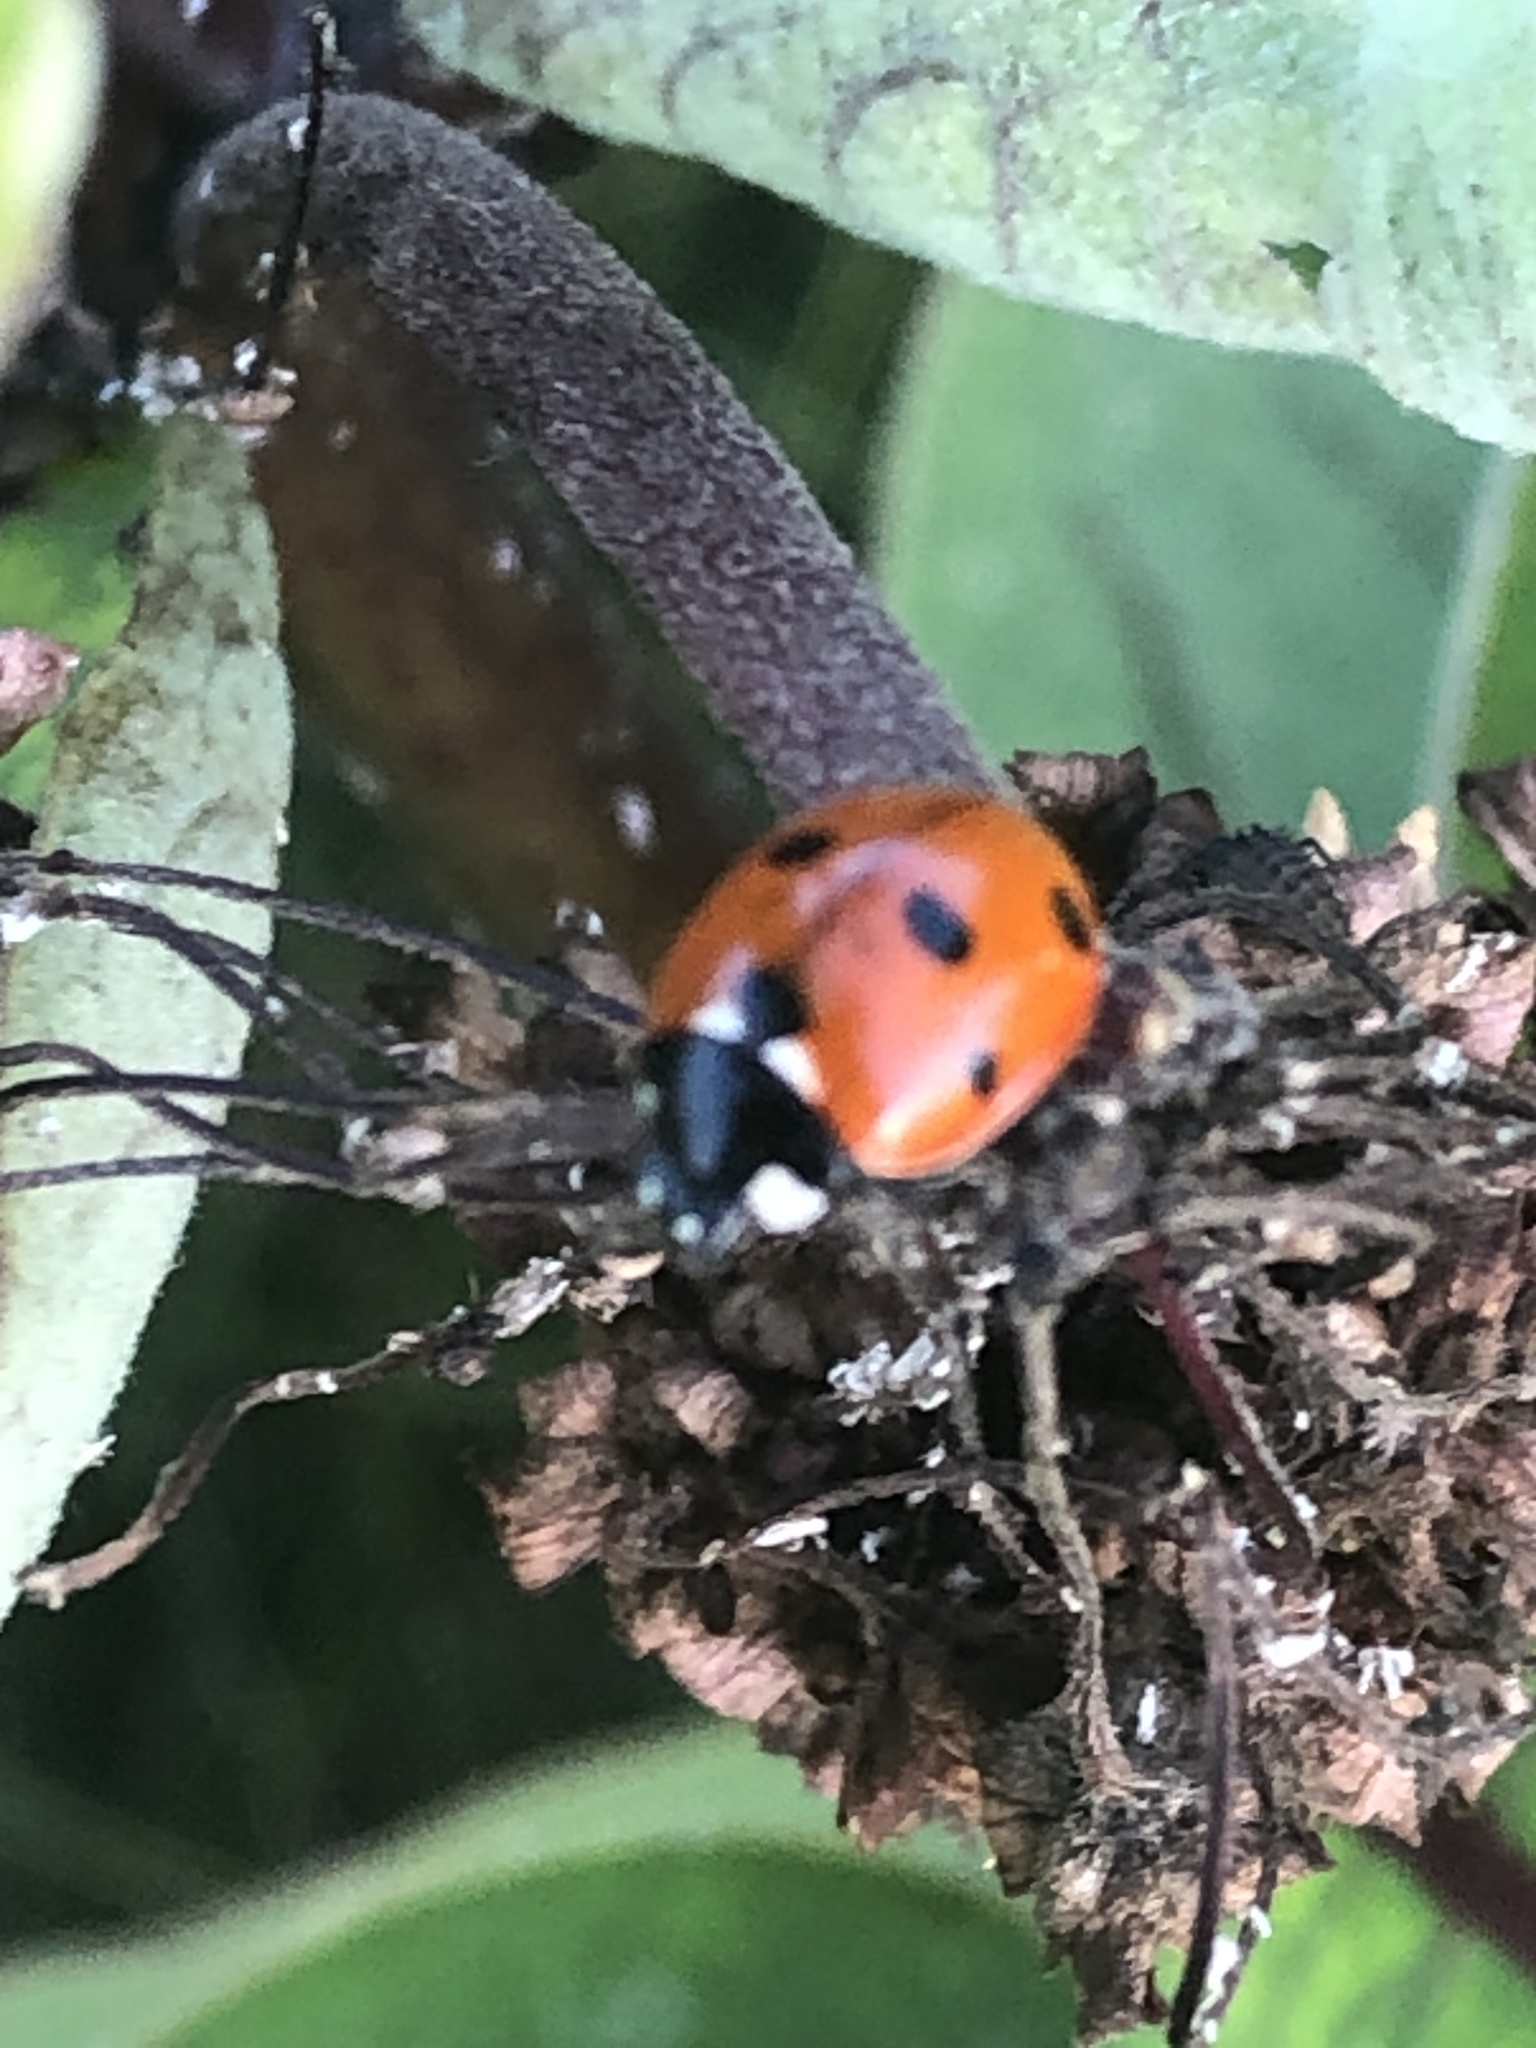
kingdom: Animalia
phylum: Arthropoda
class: Insecta
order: Coleoptera
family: Coccinellidae
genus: Coccinella
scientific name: Coccinella septempunctata
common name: Sevenspotted lady beetle
